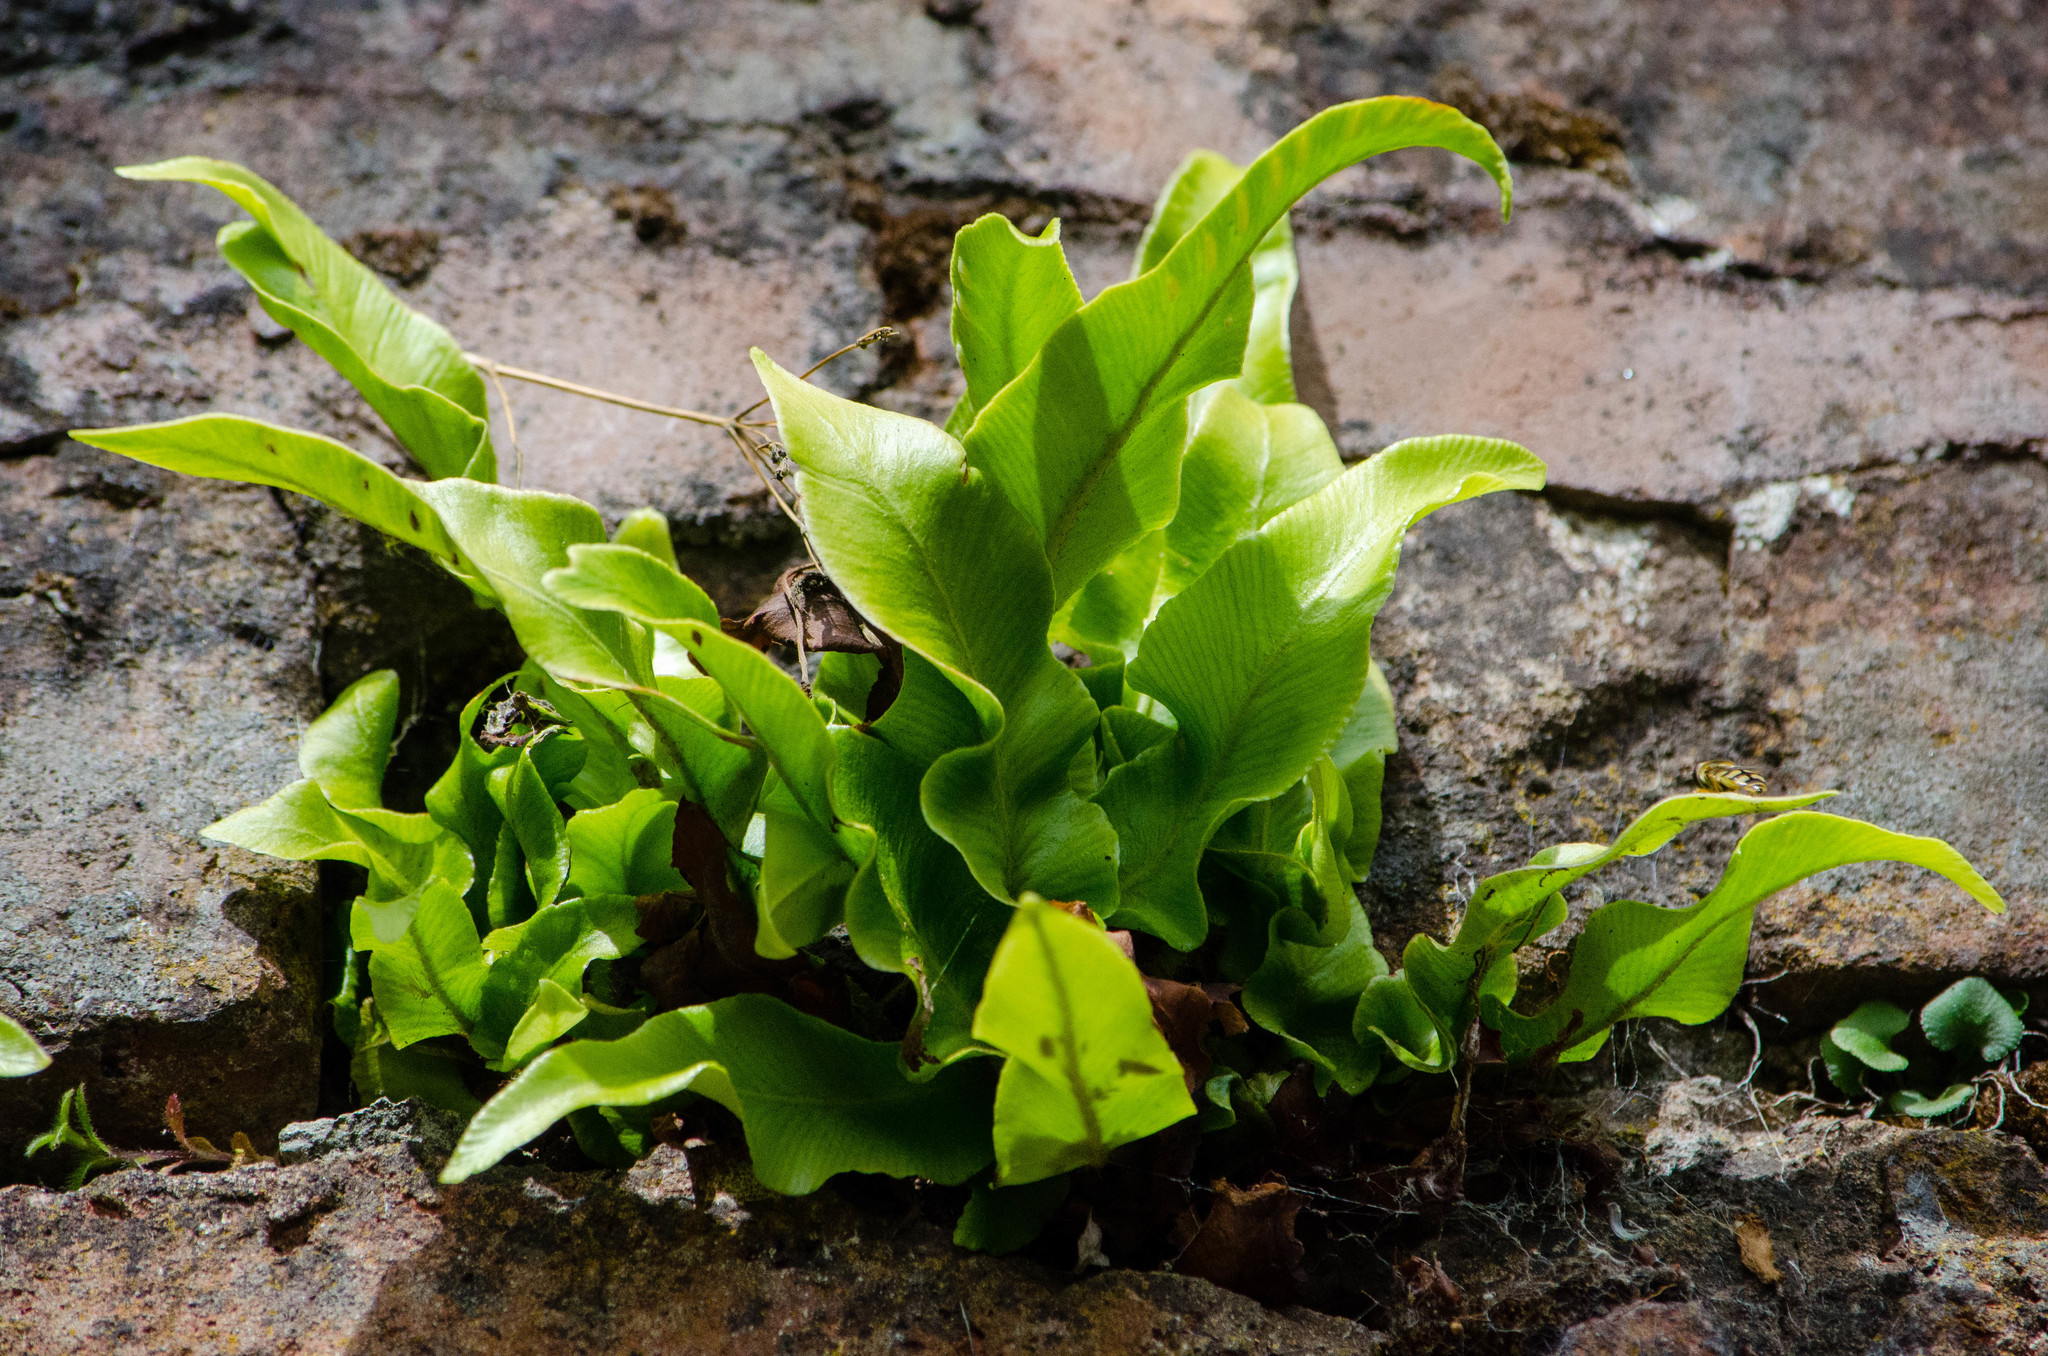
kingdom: Plantae
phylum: Tracheophyta
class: Polypodiopsida
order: Polypodiales
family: Aspleniaceae
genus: Asplenium
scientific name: Asplenium scolopendrium
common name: Hart's-tongue fern
